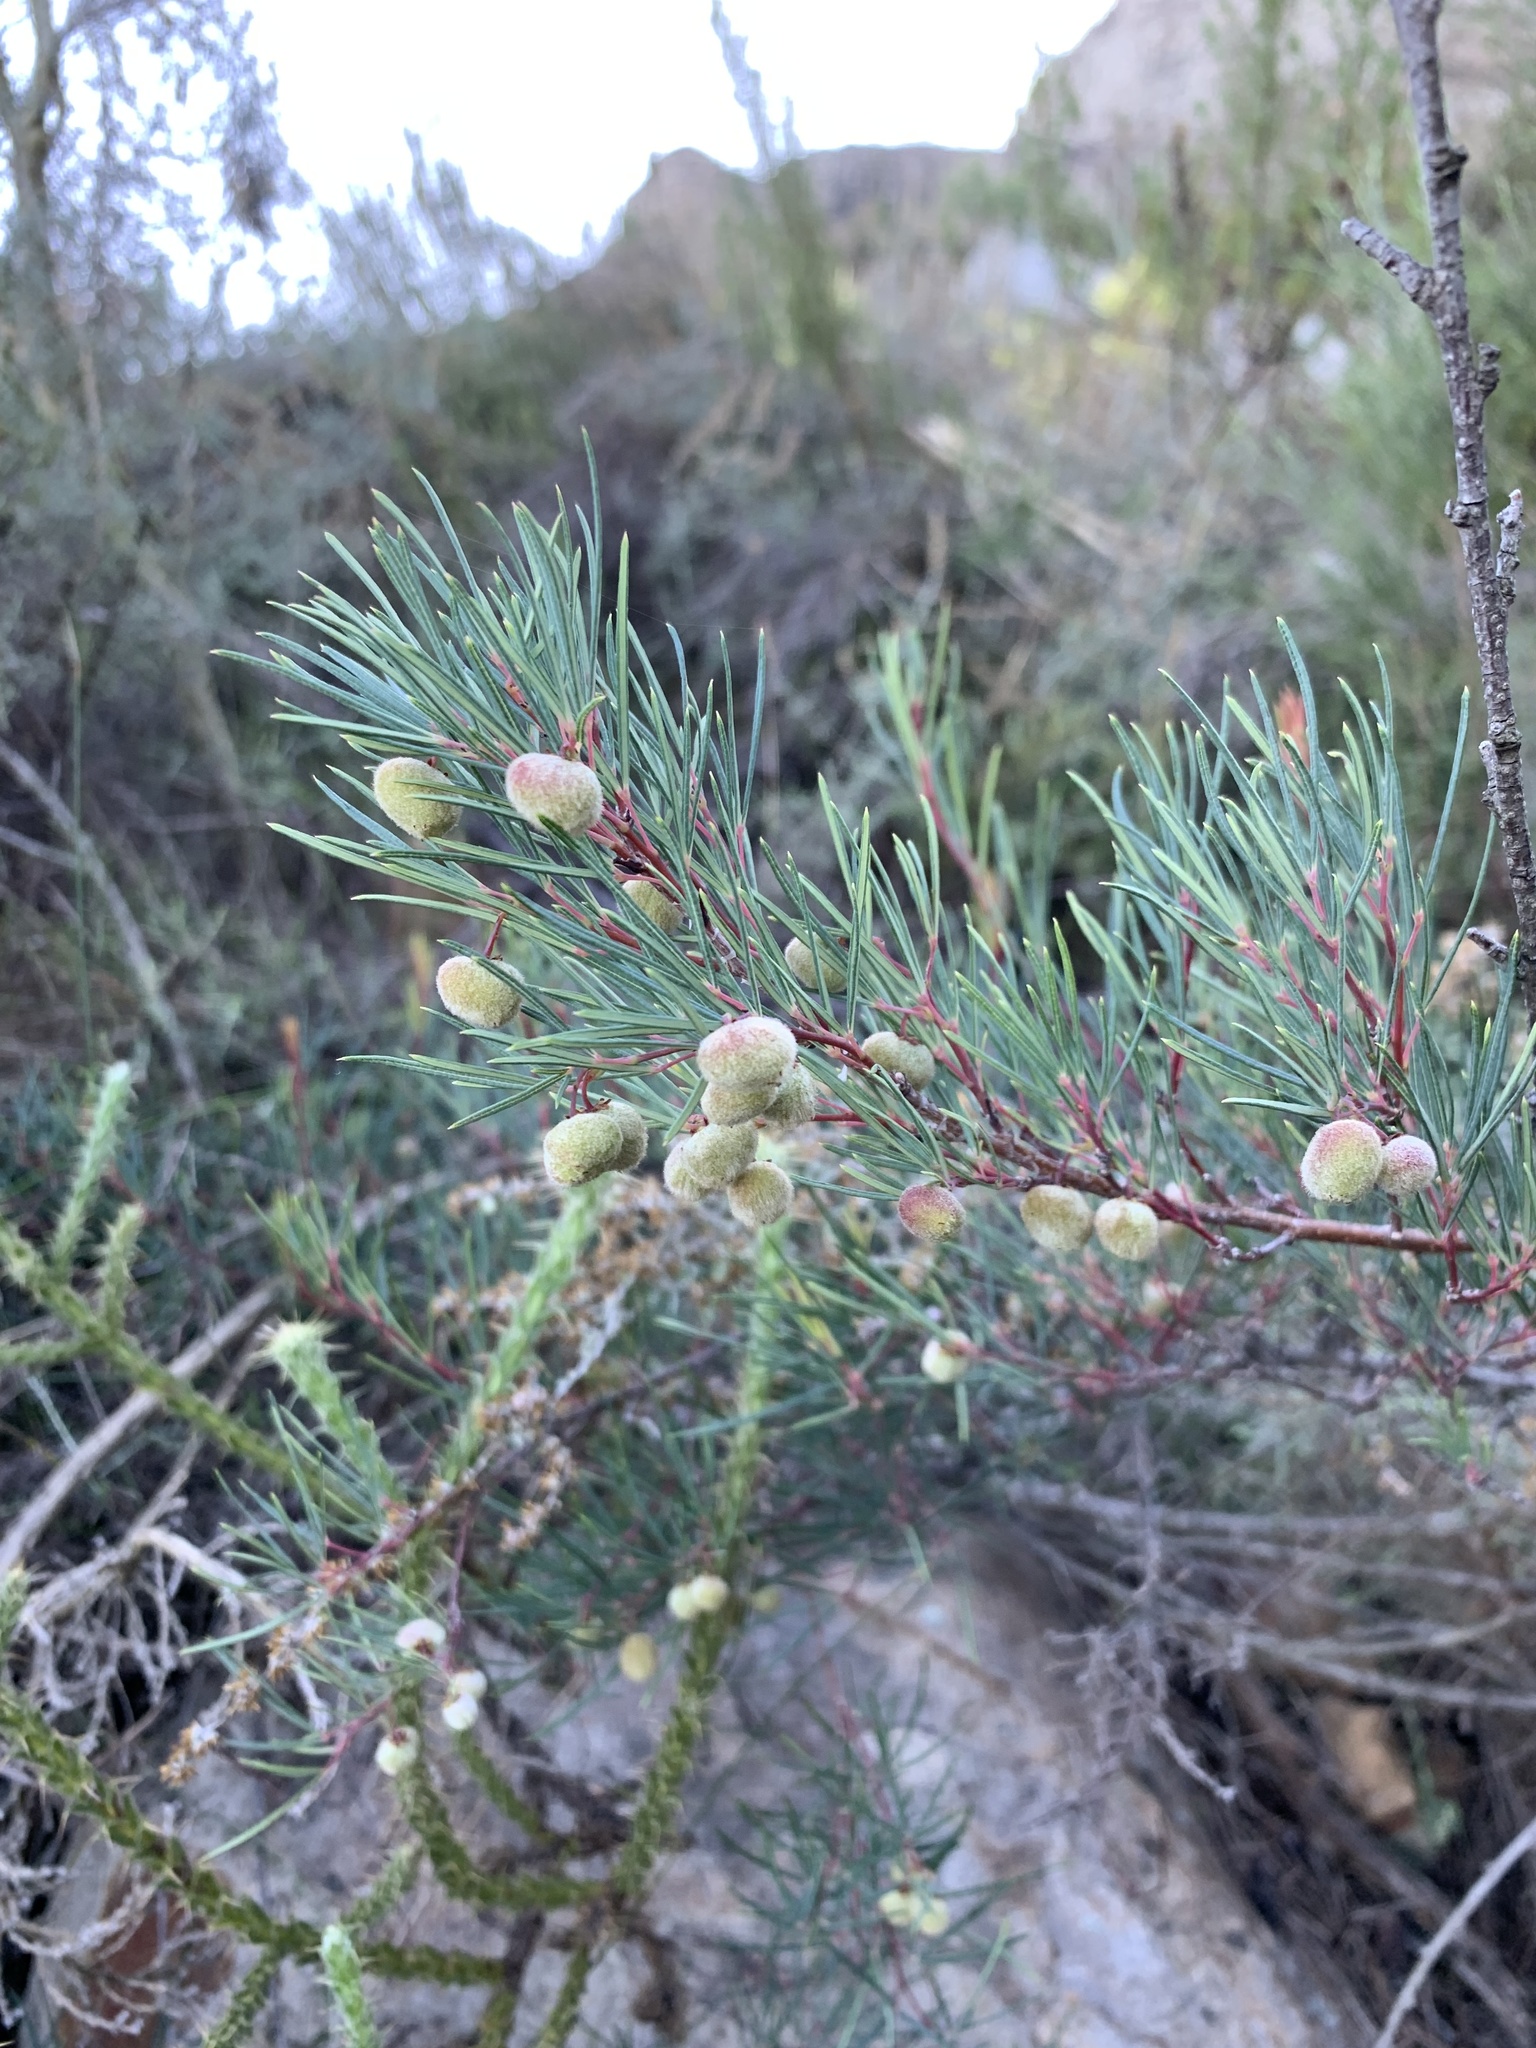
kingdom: Plantae
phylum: Tracheophyta
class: Magnoliopsida
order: Sapindales
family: Anacardiaceae
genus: Searsia
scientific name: Searsia rosmarinifolia
